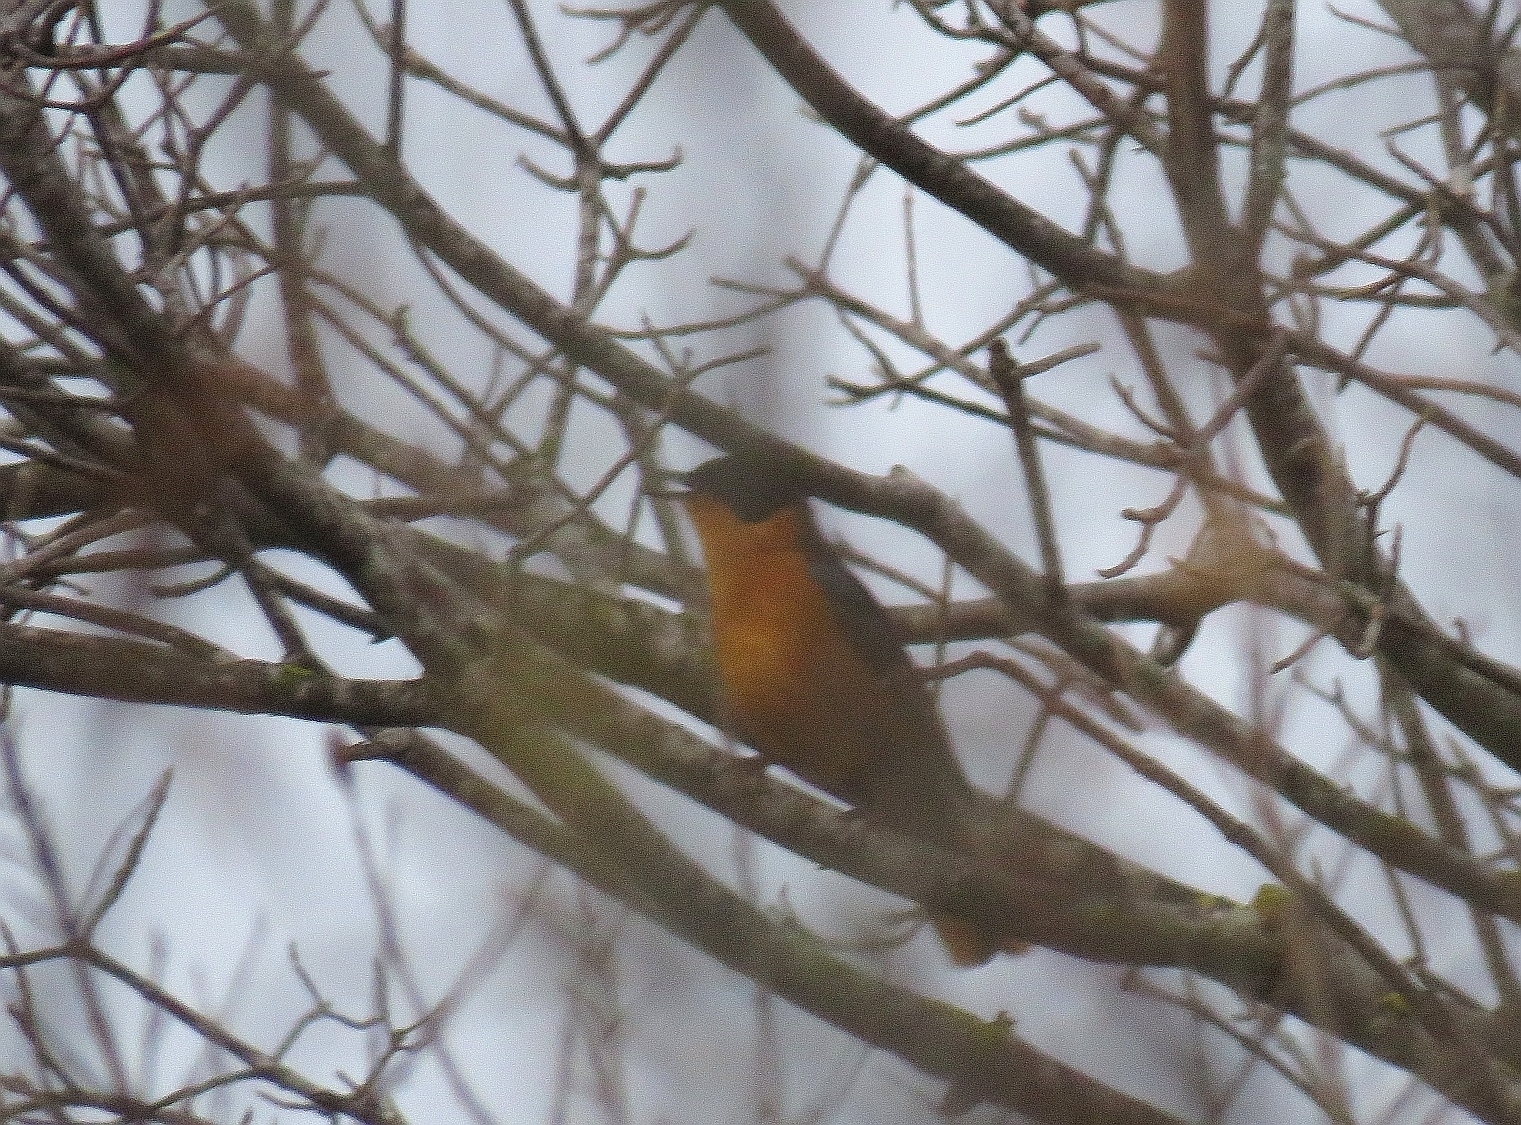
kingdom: Animalia
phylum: Chordata
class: Aves
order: Passeriformes
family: Muscicapidae
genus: Cossypha
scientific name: Cossypha dichroa
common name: Chorister robin-chat
